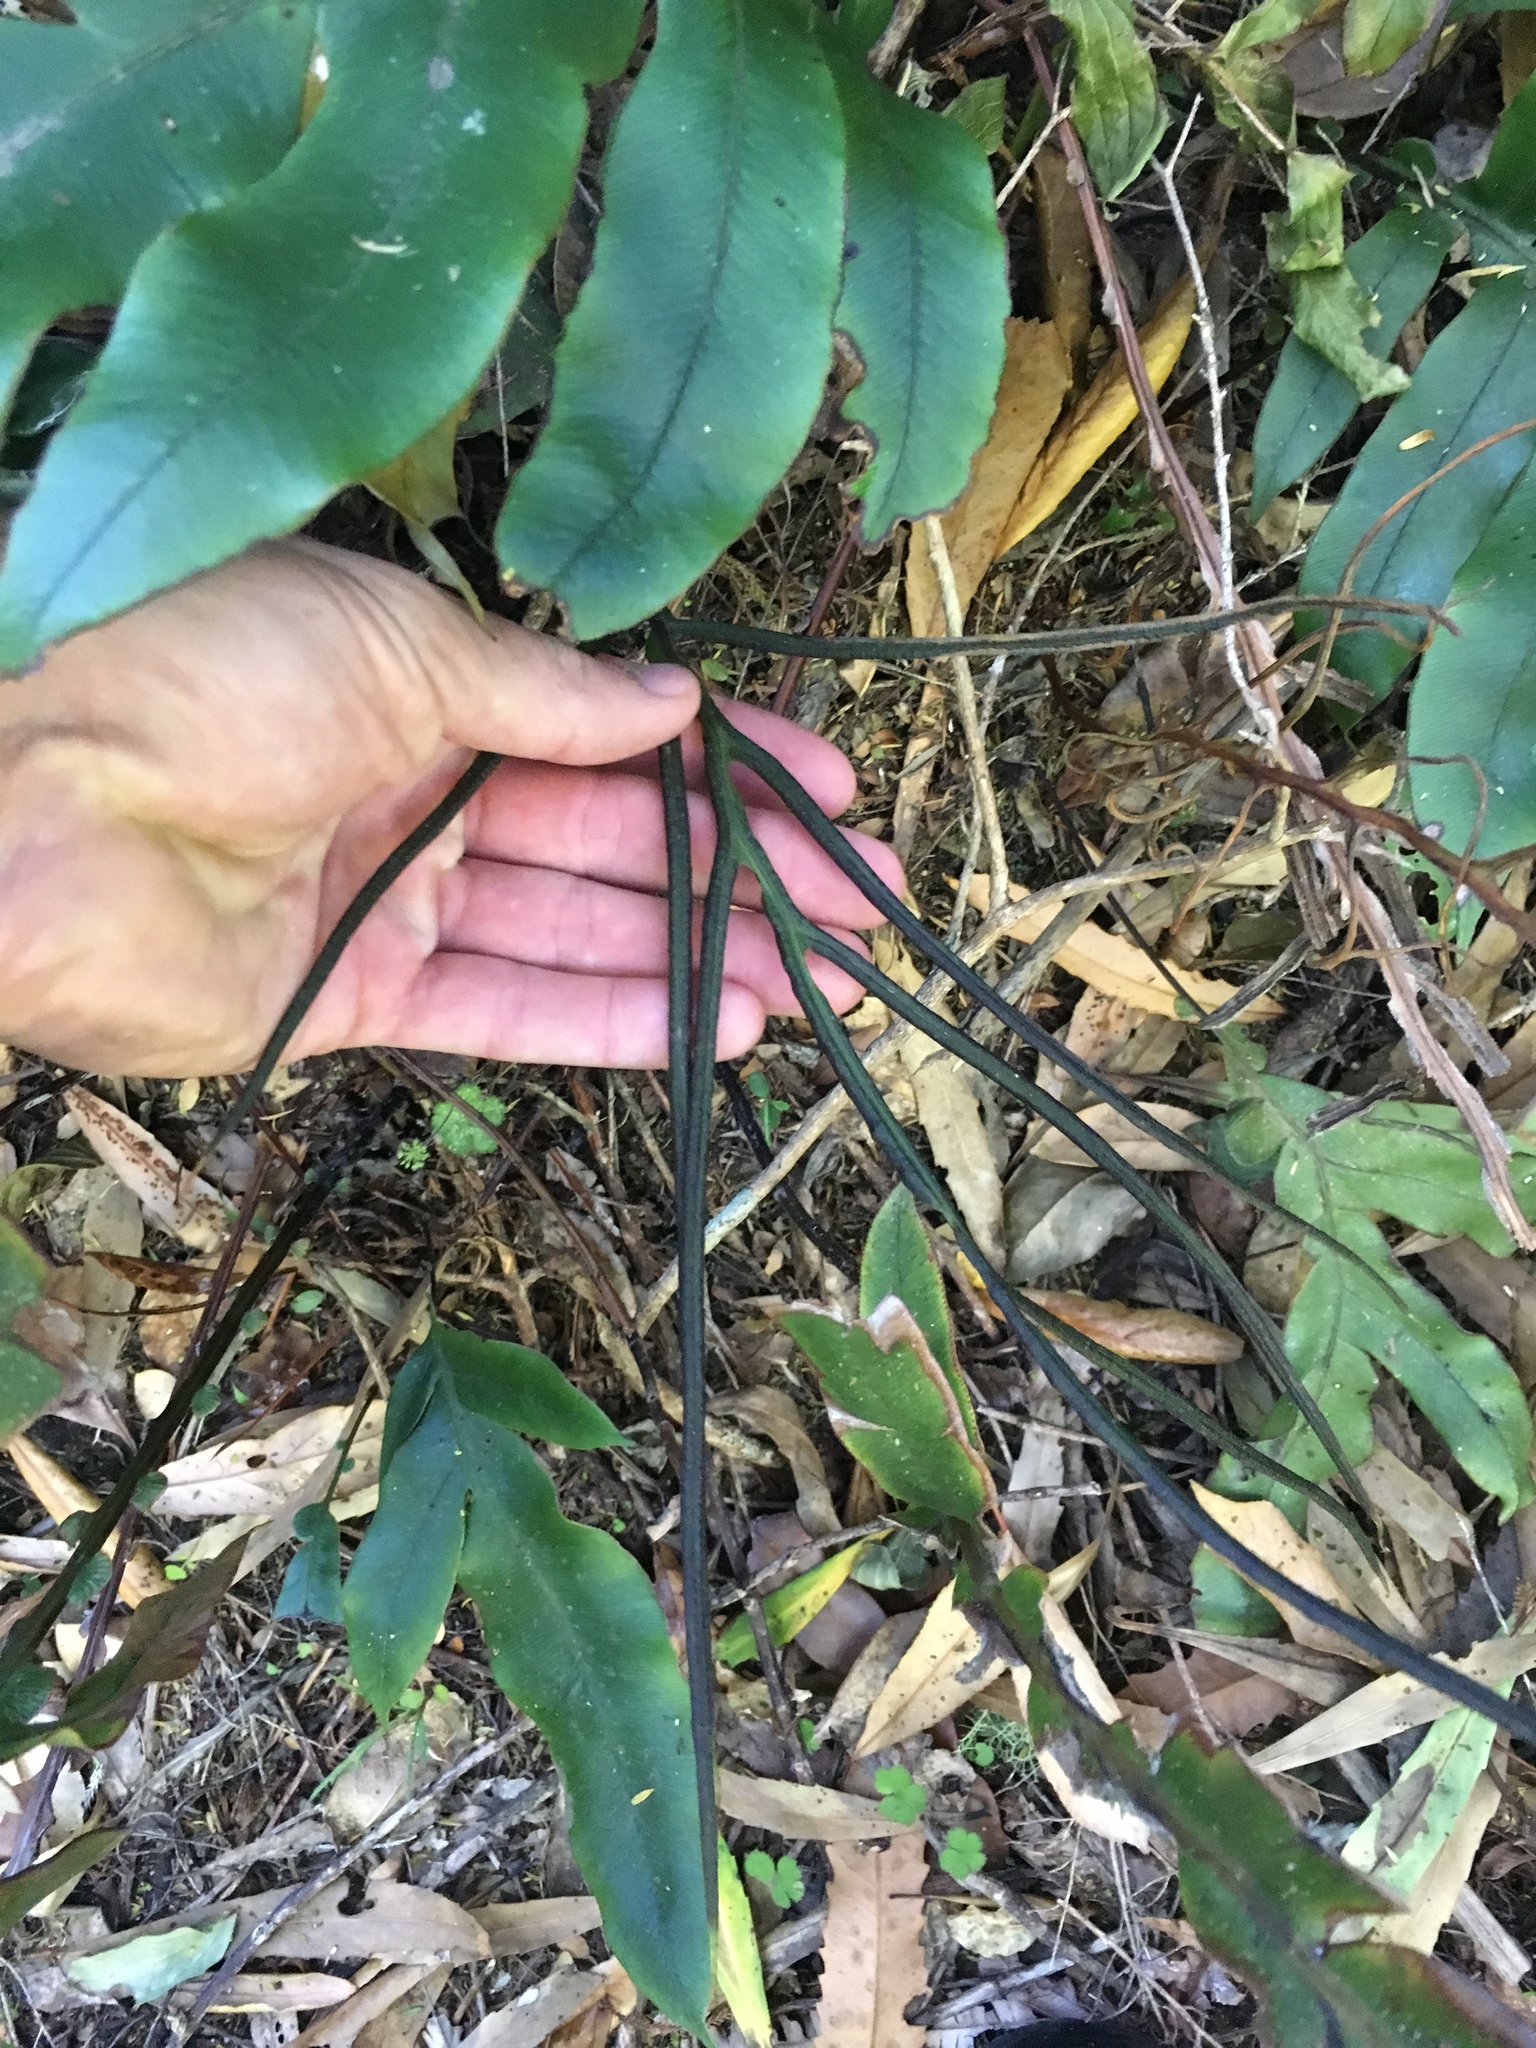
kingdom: Plantae
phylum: Tracheophyta
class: Polypodiopsida
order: Polypodiales
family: Blechnaceae
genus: Austroblechnum
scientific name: Austroblechnum colensoi
